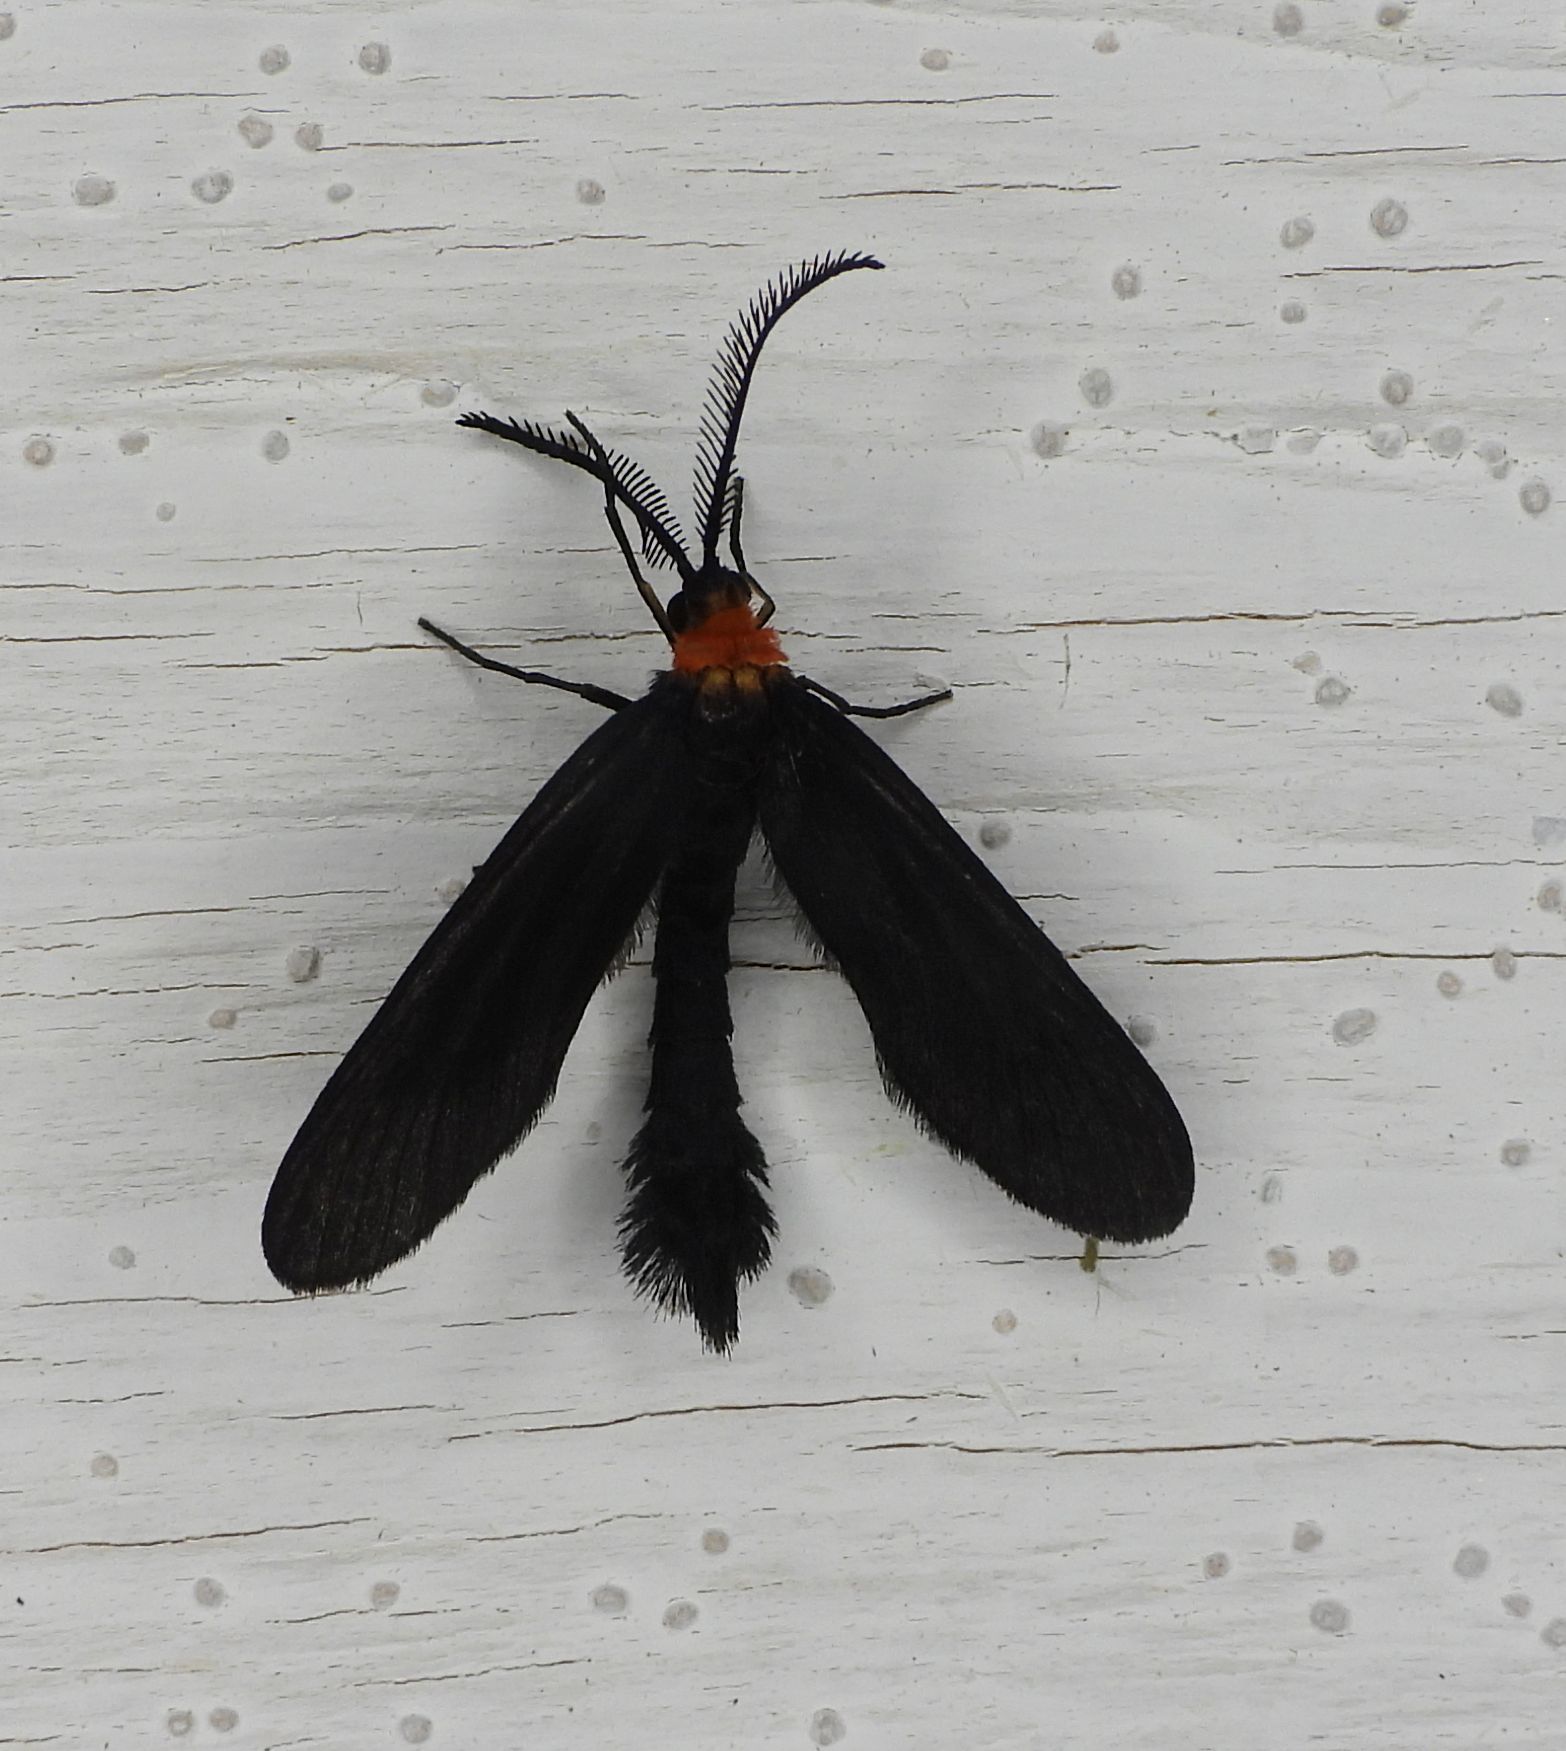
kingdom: Animalia
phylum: Arthropoda
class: Insecta
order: Lepidoptera
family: Zygaenidae
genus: Harrisina
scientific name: Harrisina americana
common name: Grapeleaf skeletonizer moth
